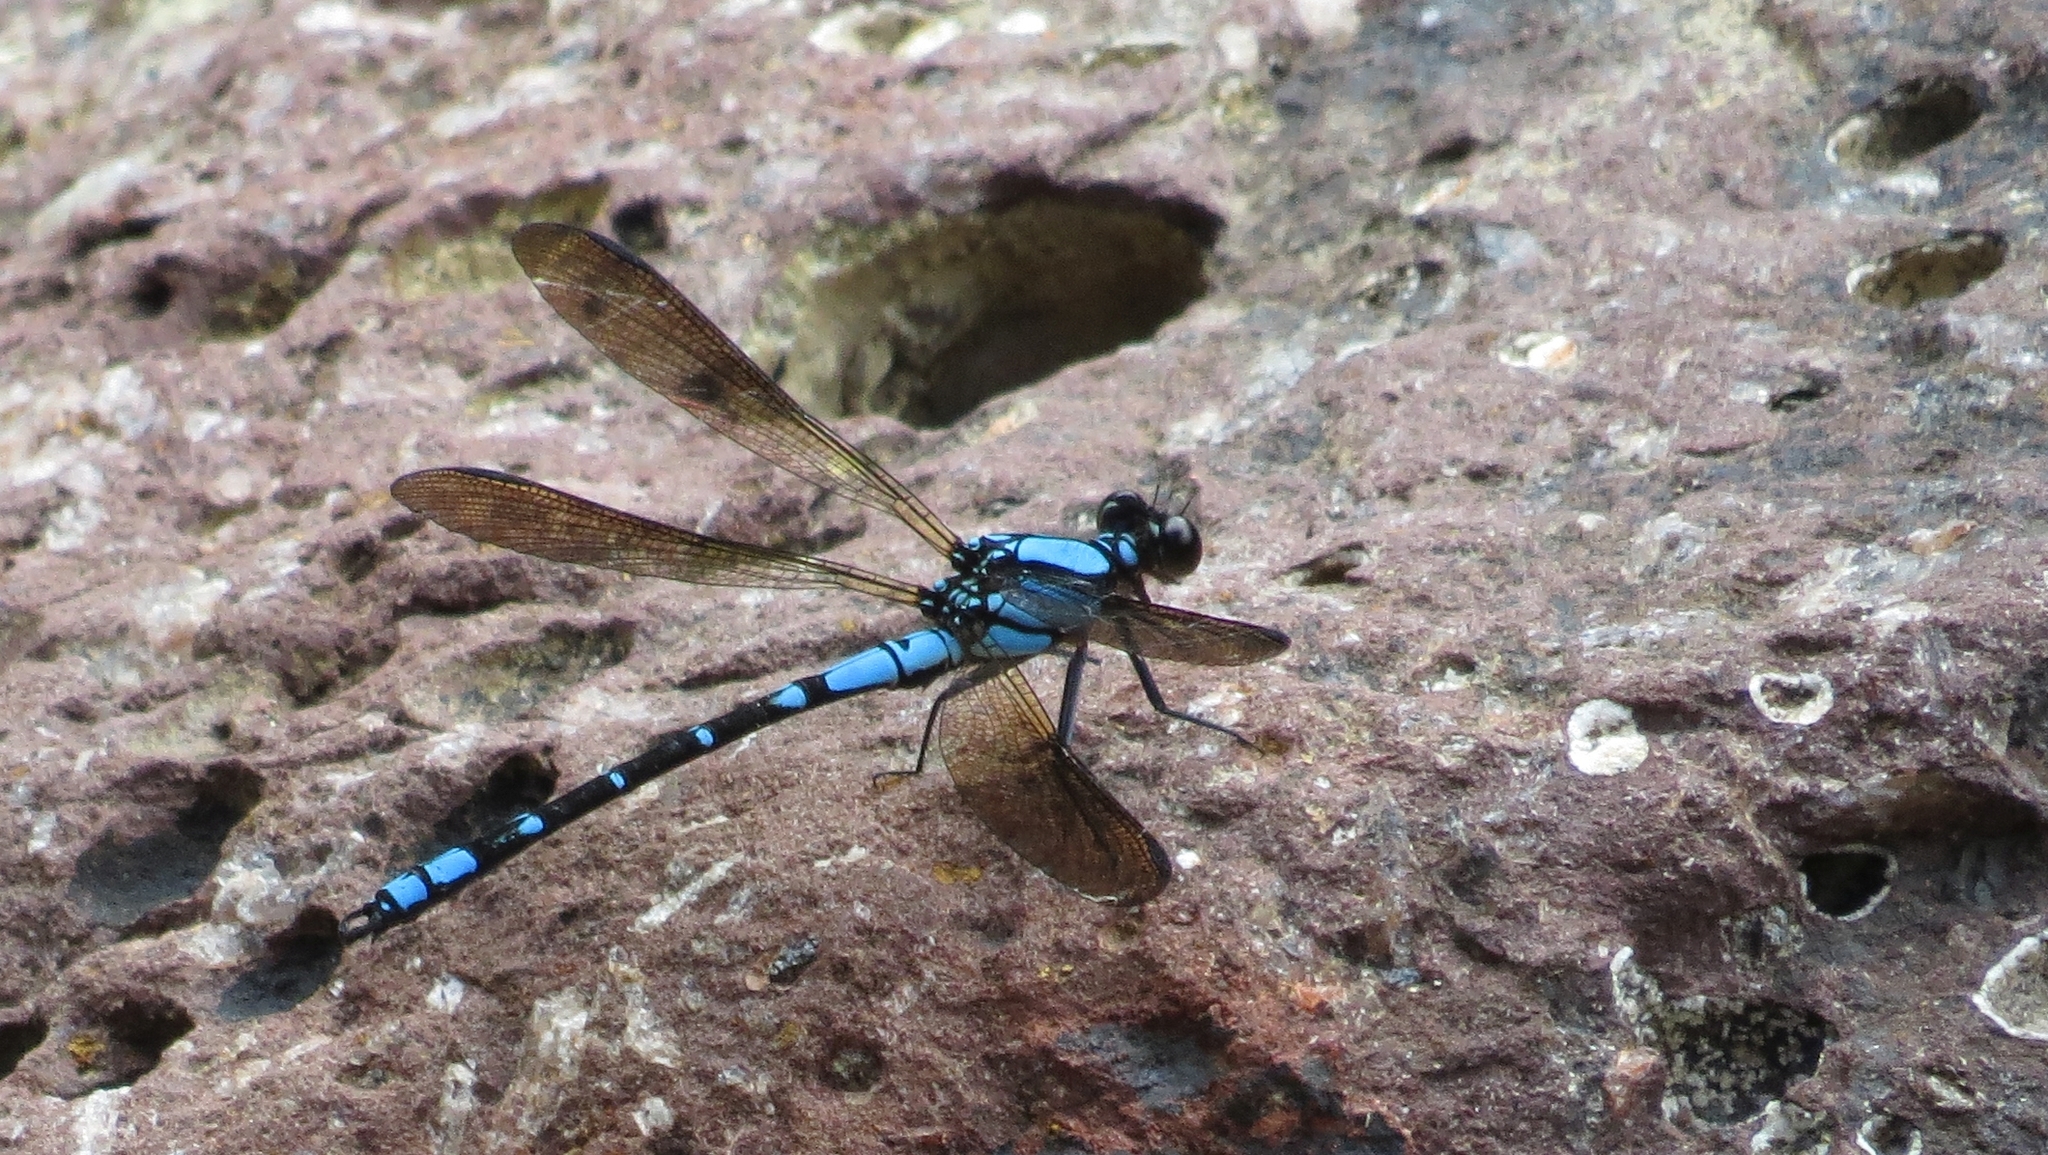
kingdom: Animalia
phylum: Arthropoda
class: Insecta
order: Odonata
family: Lestoideidae
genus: Diphlebia
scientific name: Diphlebia coerulescens
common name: Sapphire rockmaster
